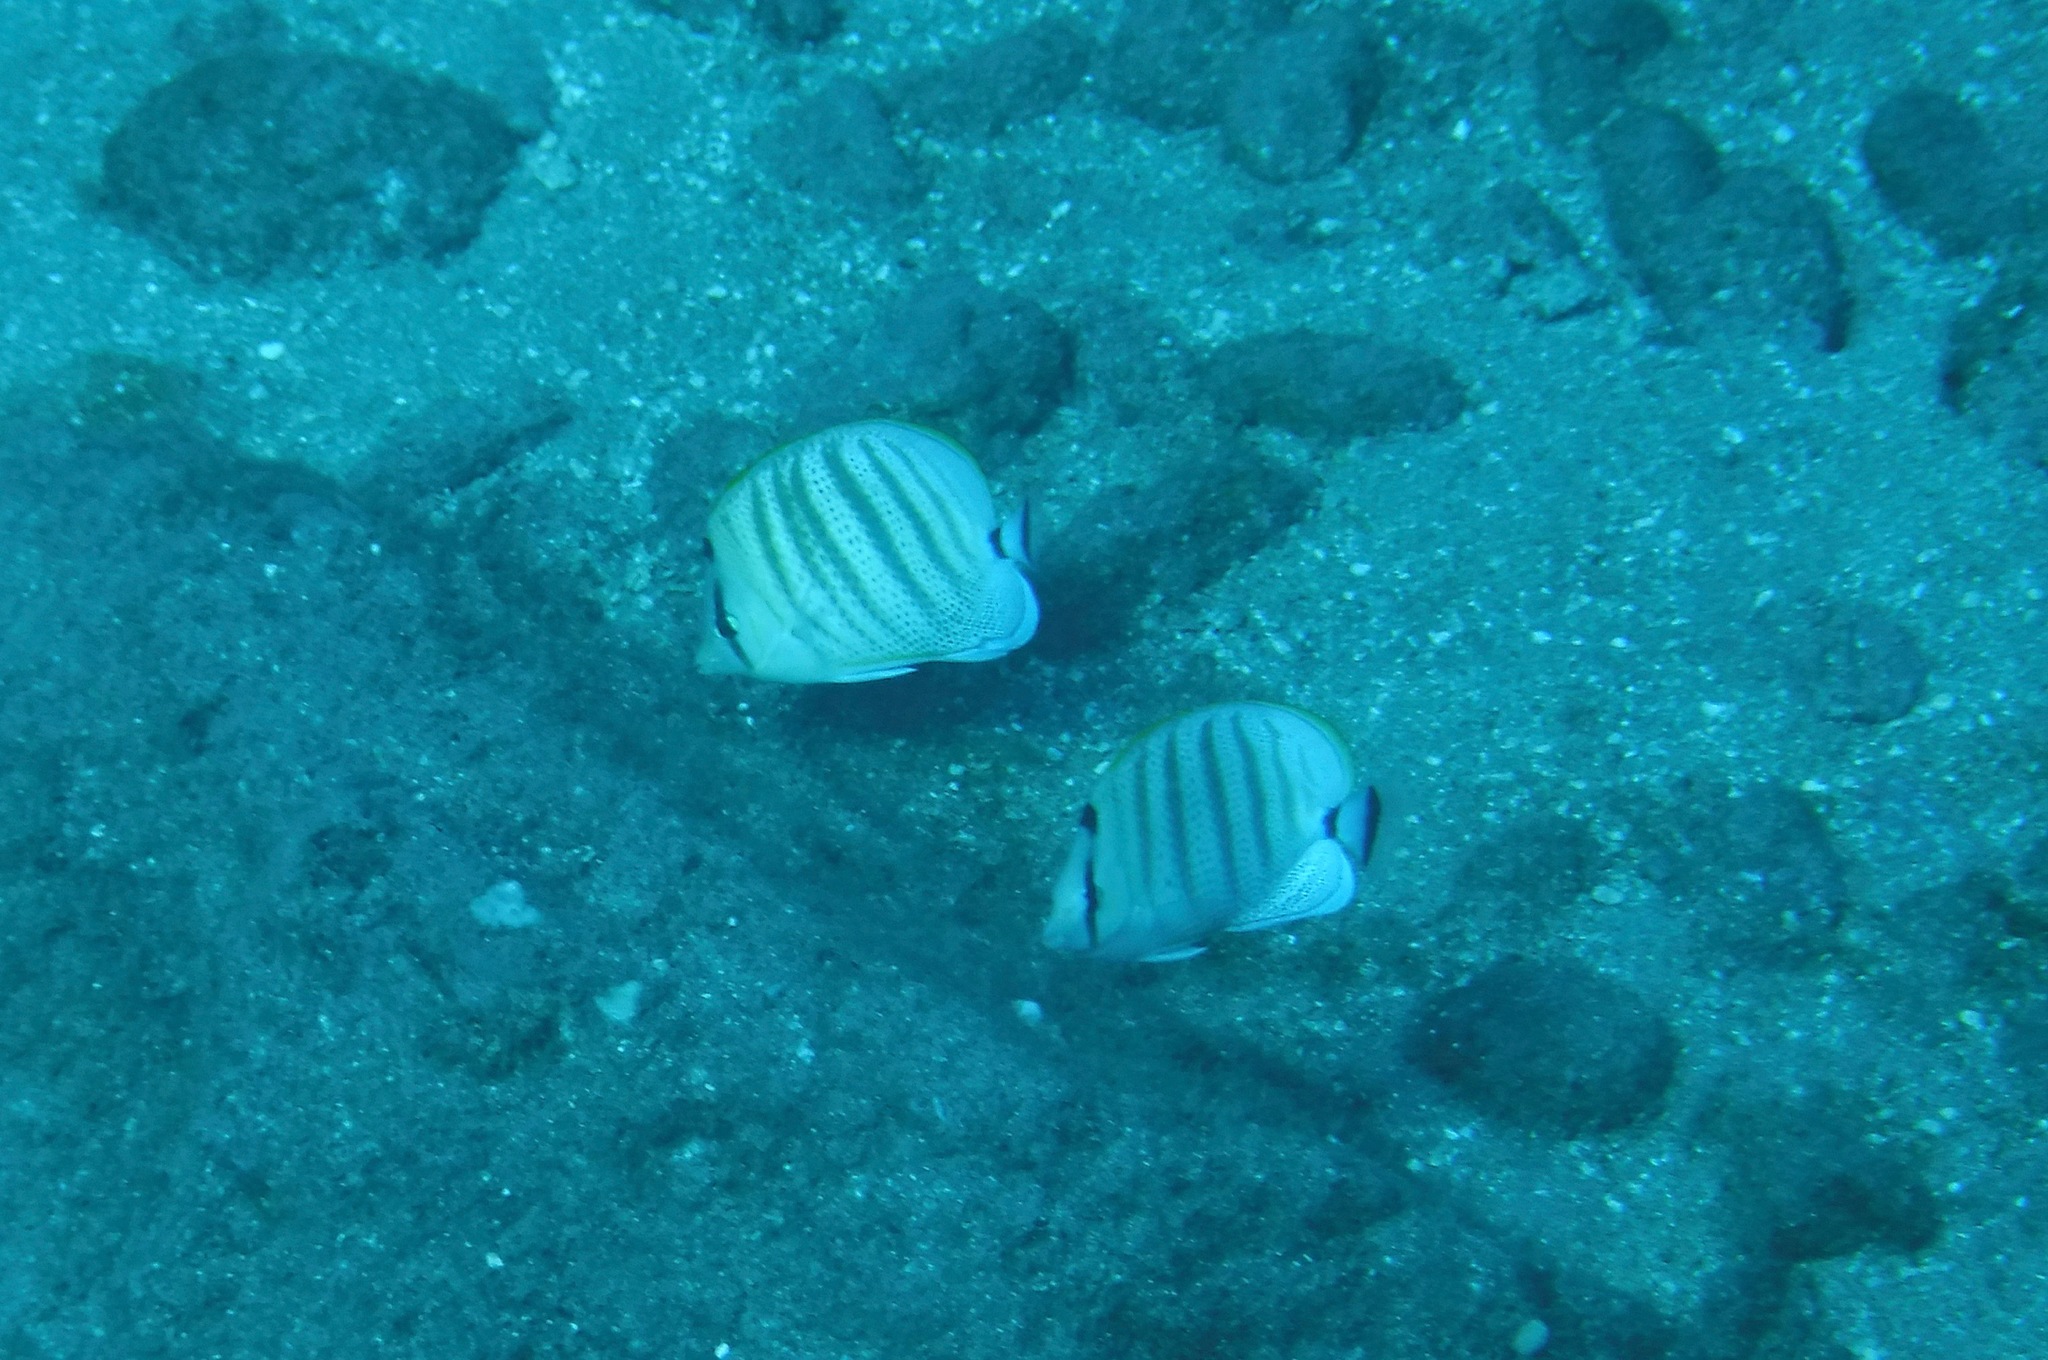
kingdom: Animalia
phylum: Chordata
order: Perciformes
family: Chaetodontidae
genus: Chaetodon
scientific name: Chaetodon multicinctus
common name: Multiband butterflyfish
